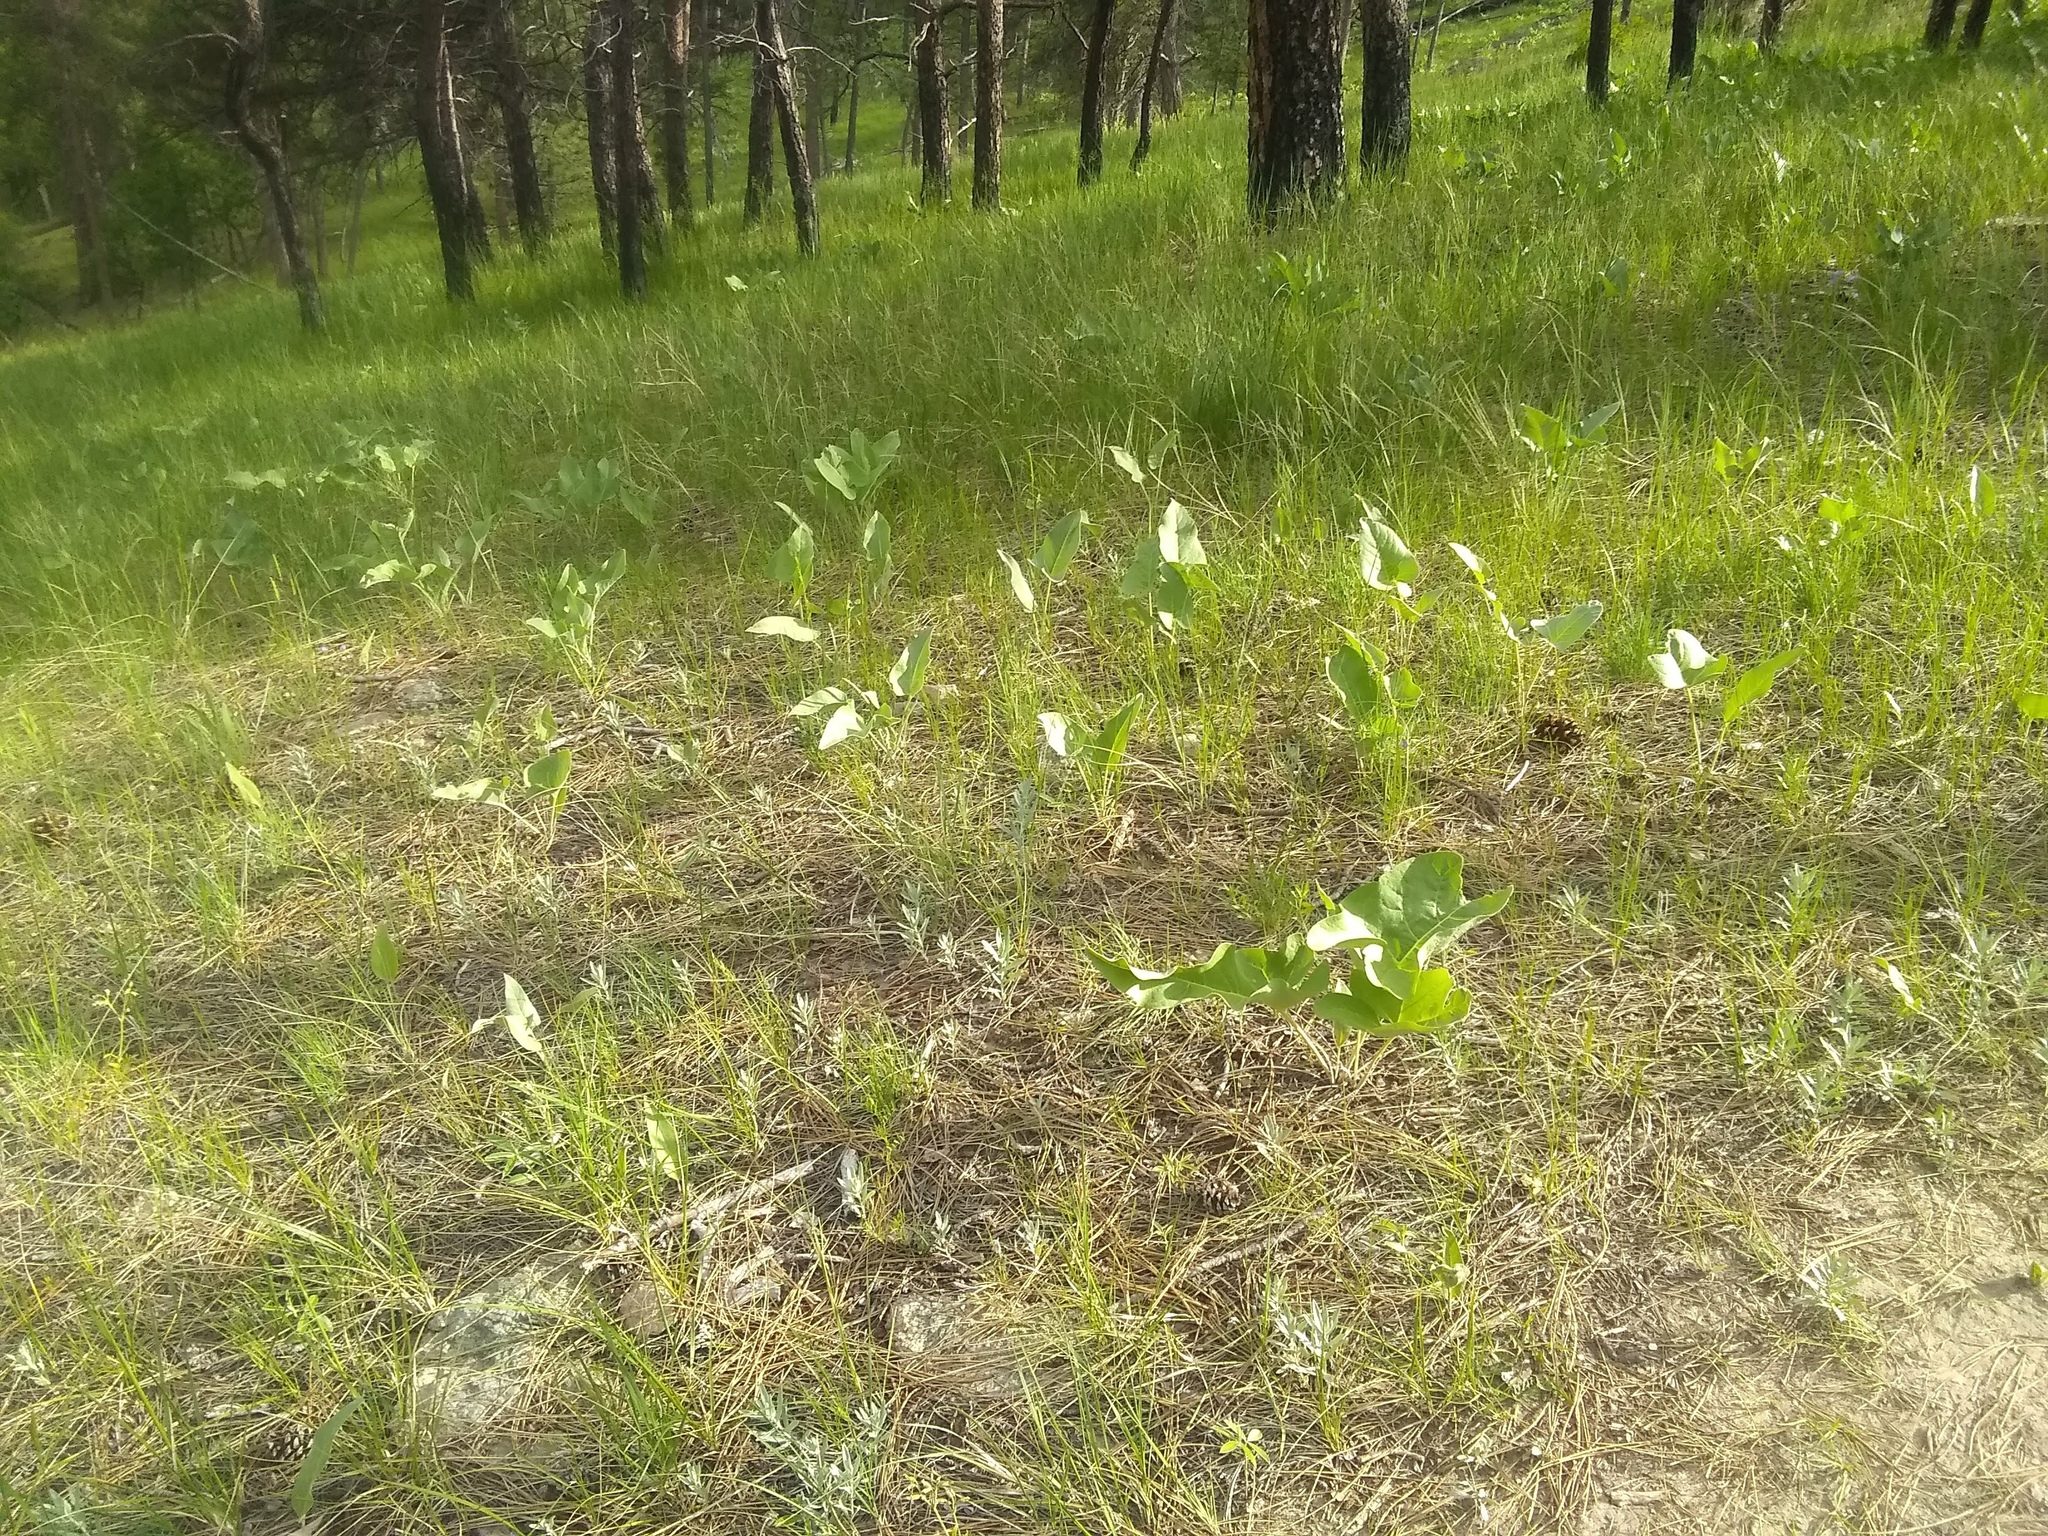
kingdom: Plantae
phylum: Tracheophyta
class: Magnoliopsida
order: Asterales
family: Asteraceae
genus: Wyethia
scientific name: Wyethia sagittata
